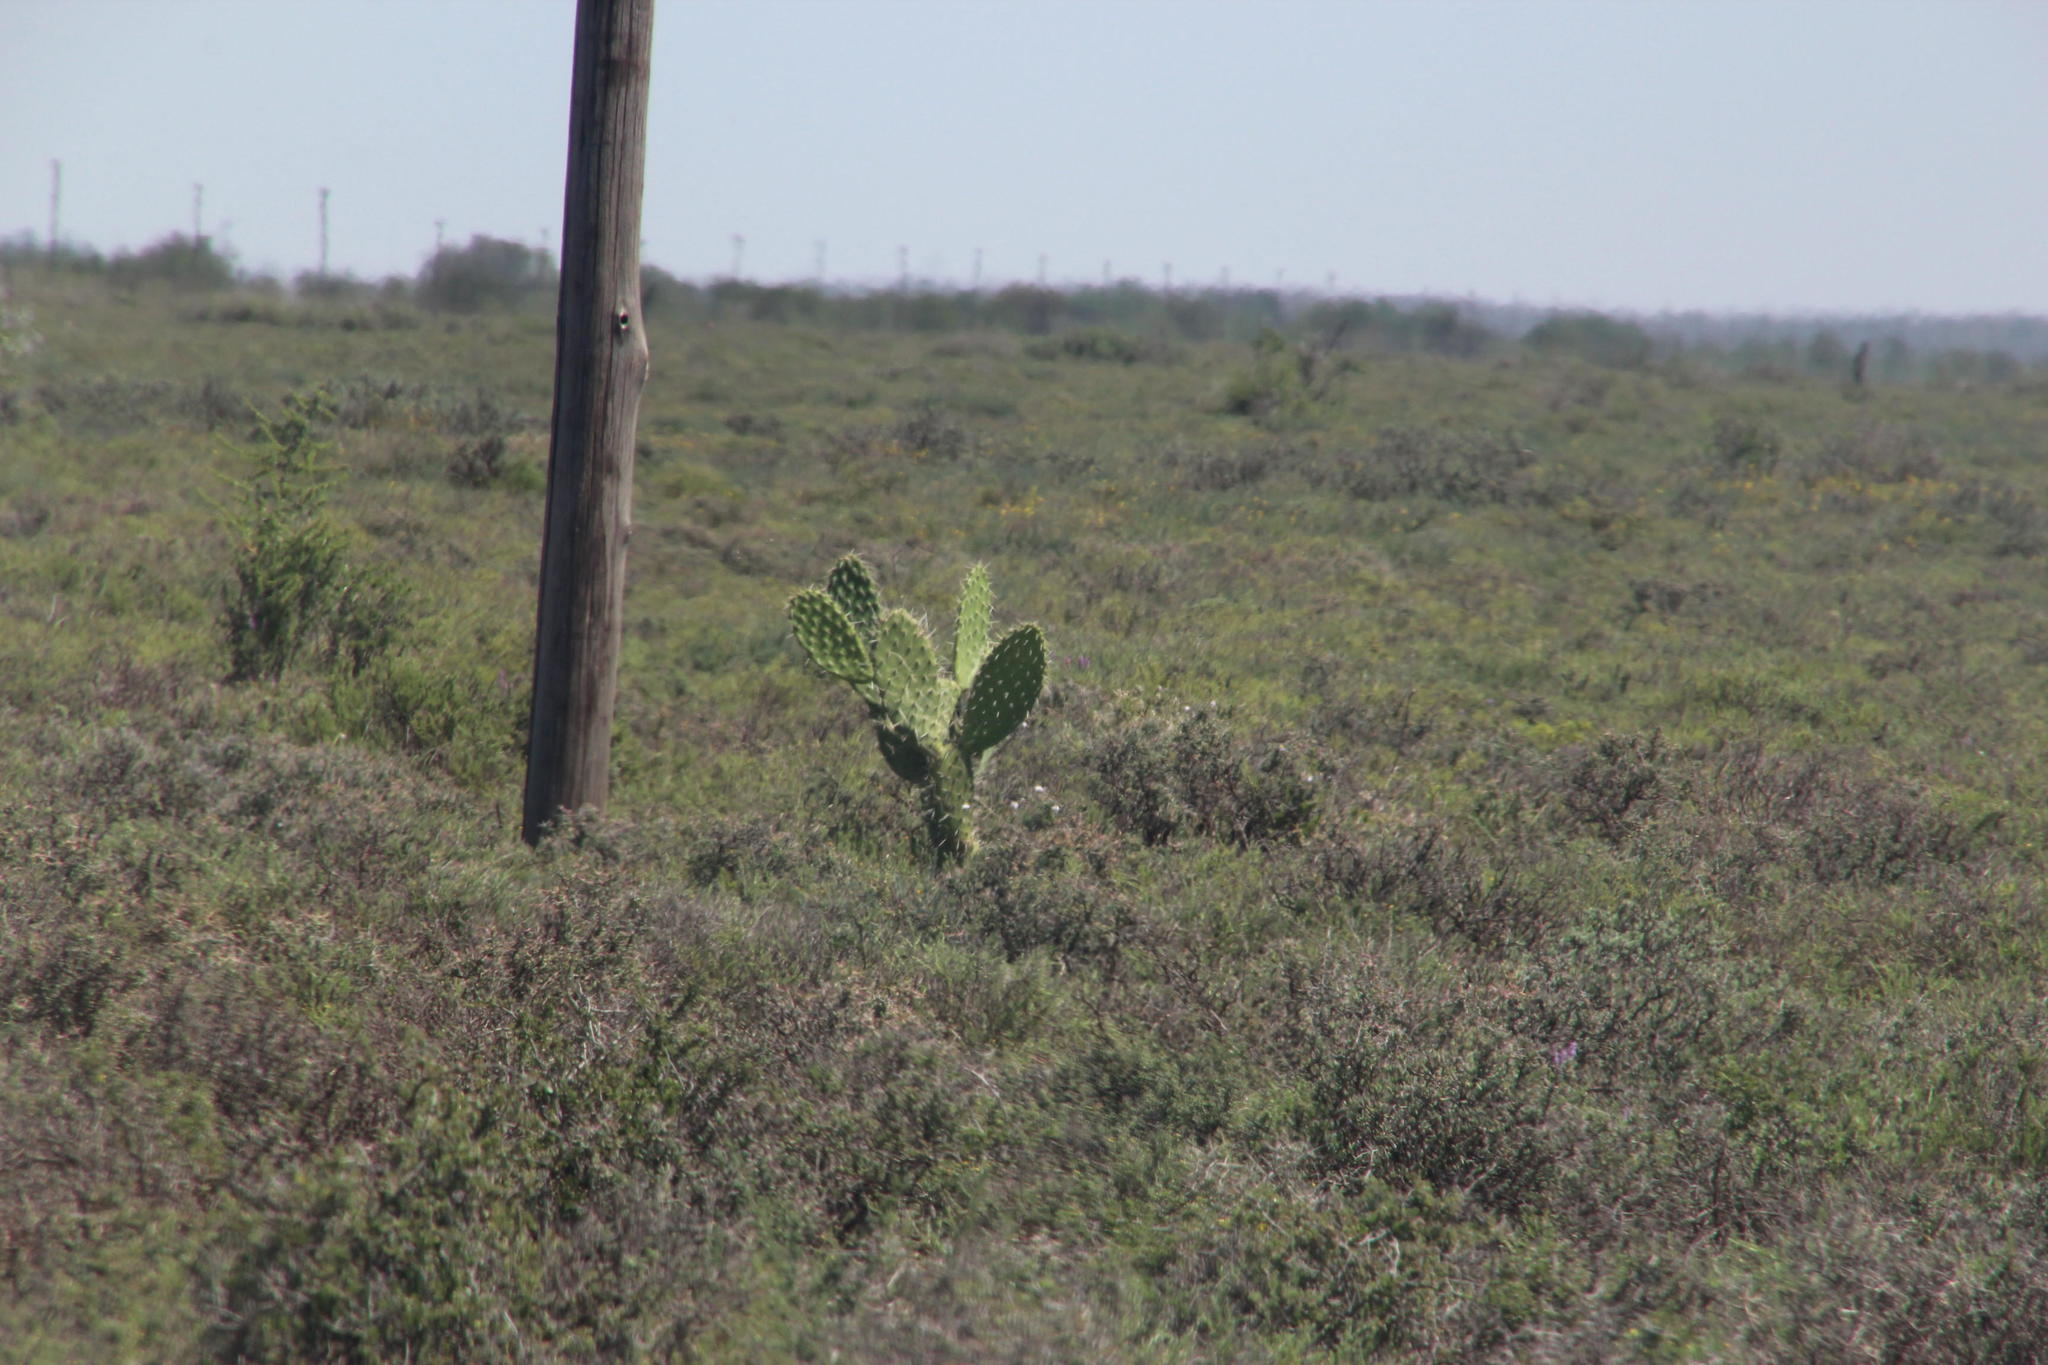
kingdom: Plantae
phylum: Tracheophyta
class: Magnoliopsida
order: Caryophyllales
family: Cactaceae
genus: Opuntia
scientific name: Opuntia ficus-indica
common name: Barbary fig
